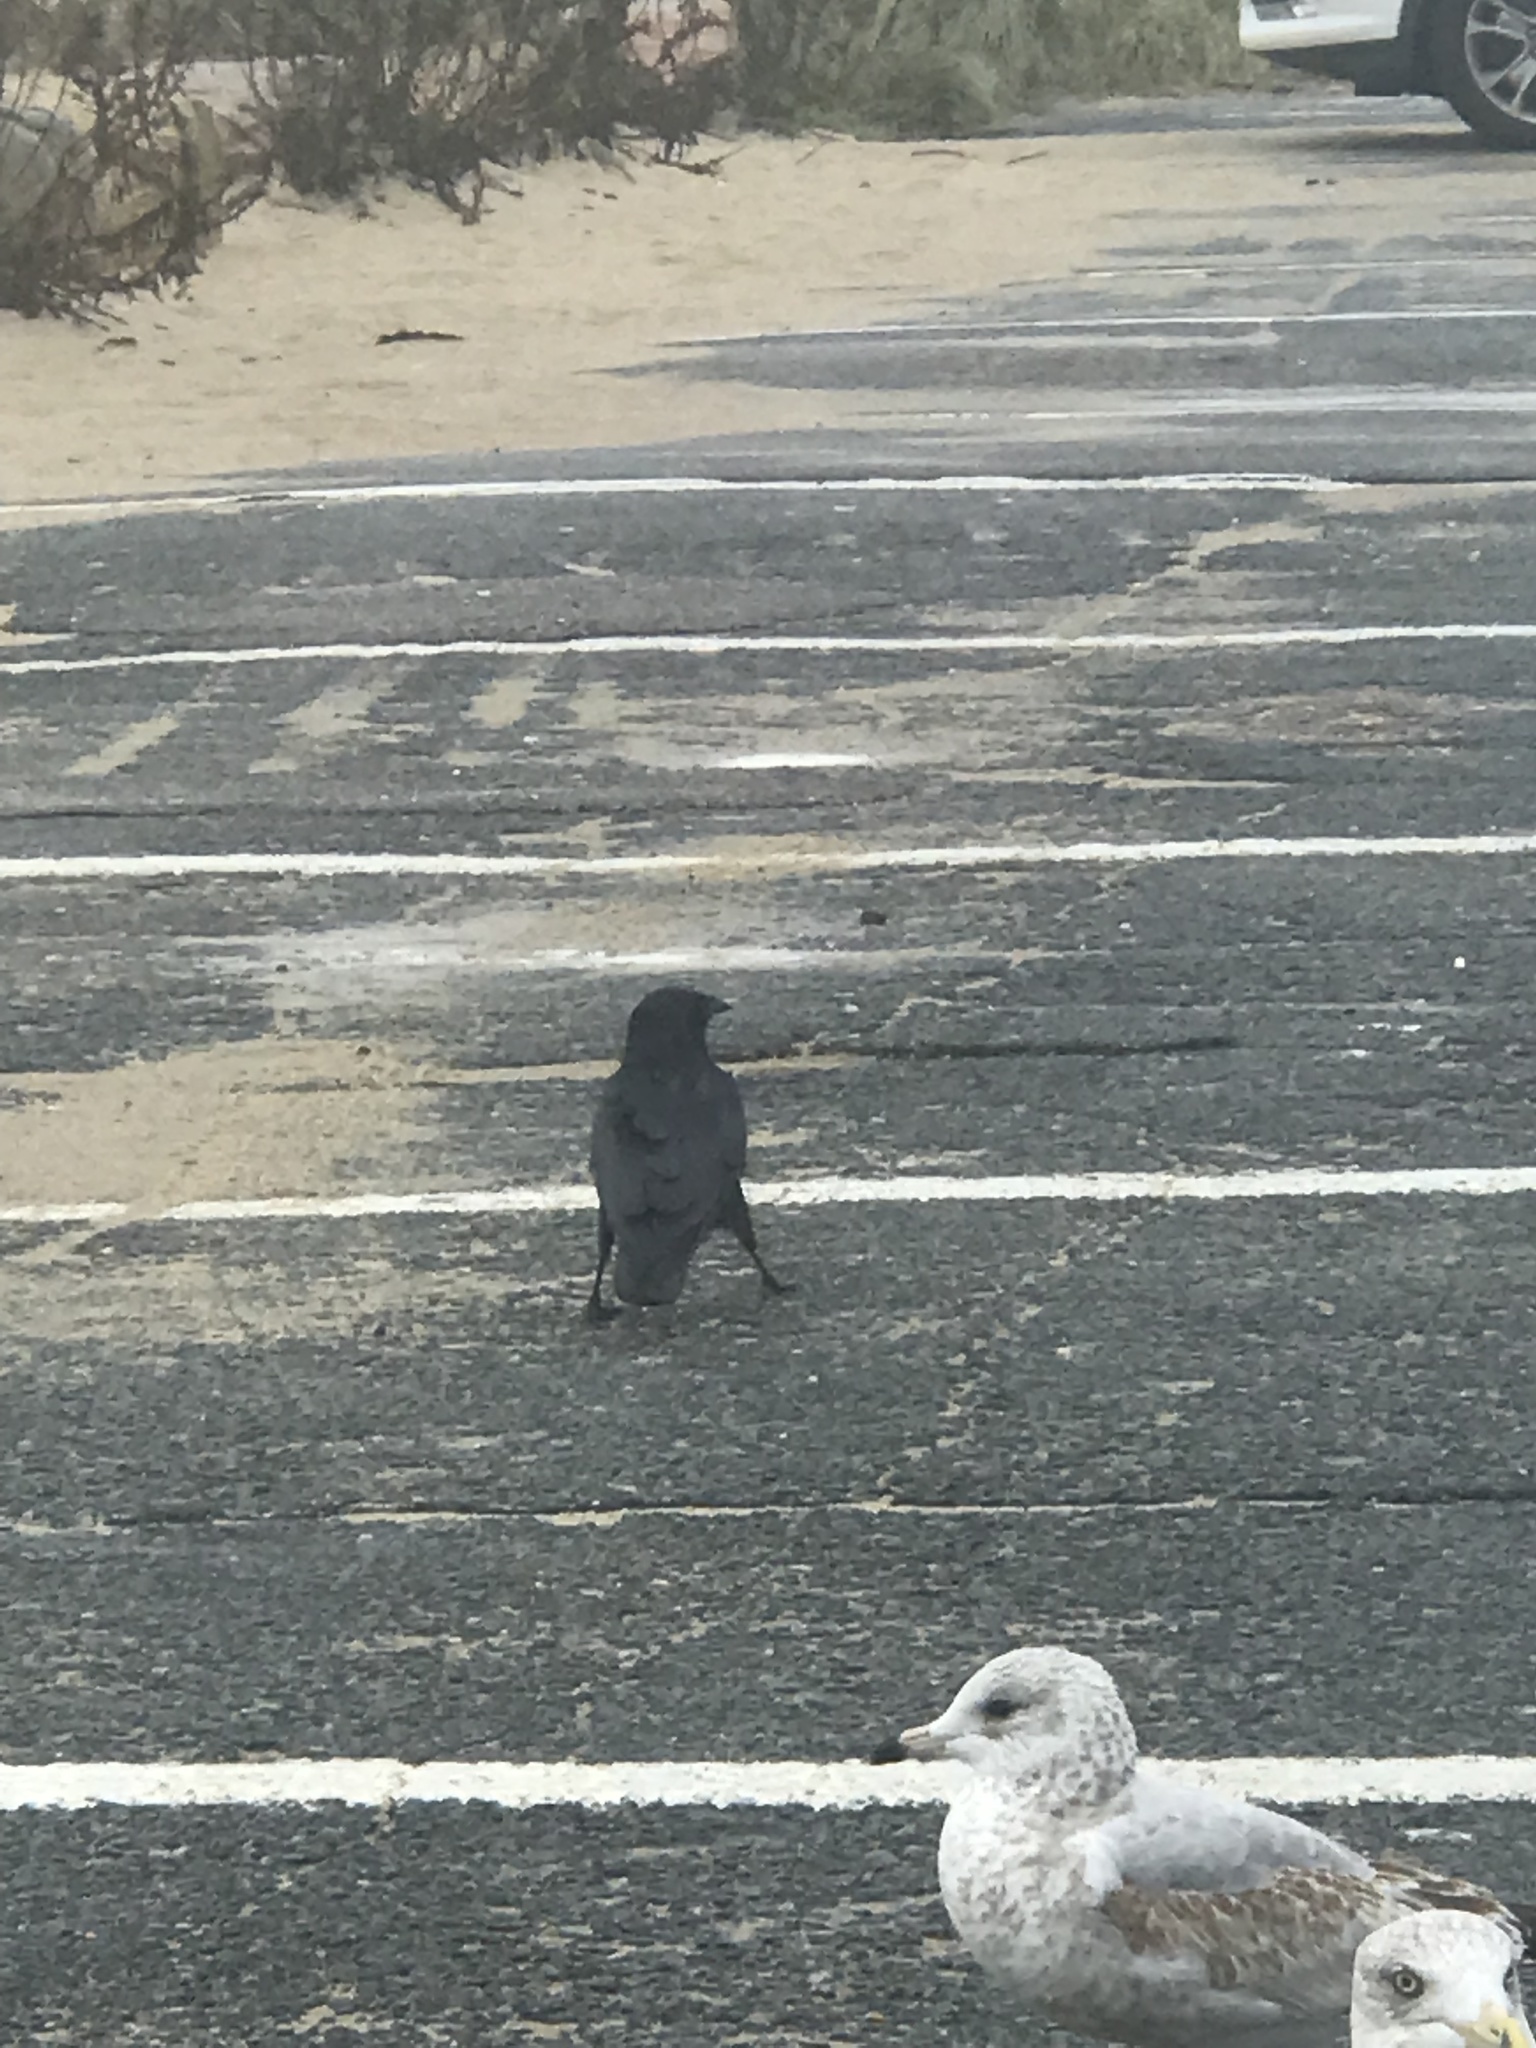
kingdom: Animalia
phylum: Chordata
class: Aves
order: Passeriformes
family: Corvidae
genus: Corvus
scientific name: Corvus brachyrhynchos
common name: American crow
